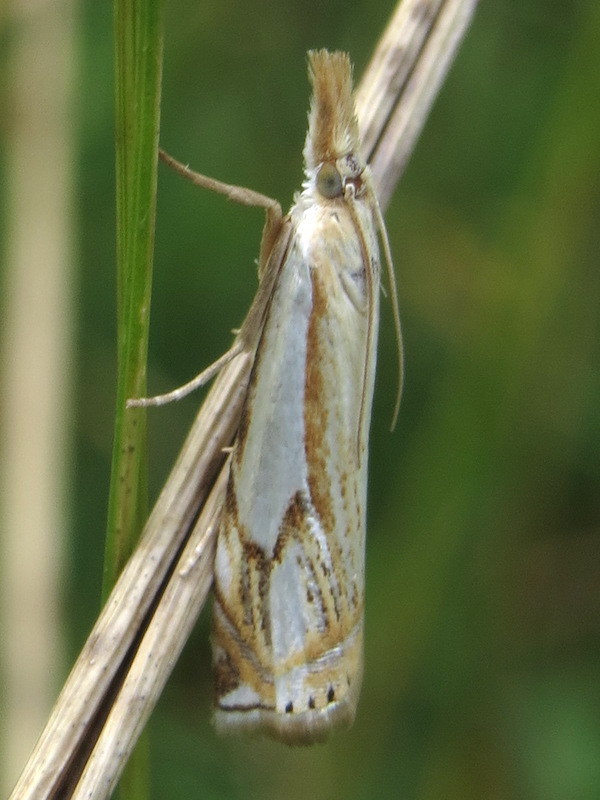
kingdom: Animalia
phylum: Arthropoda
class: Insecta
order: Lepidoptera
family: Crambidae
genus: Crambus
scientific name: Crambus agitatellus
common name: Double-banded grass-veneer
